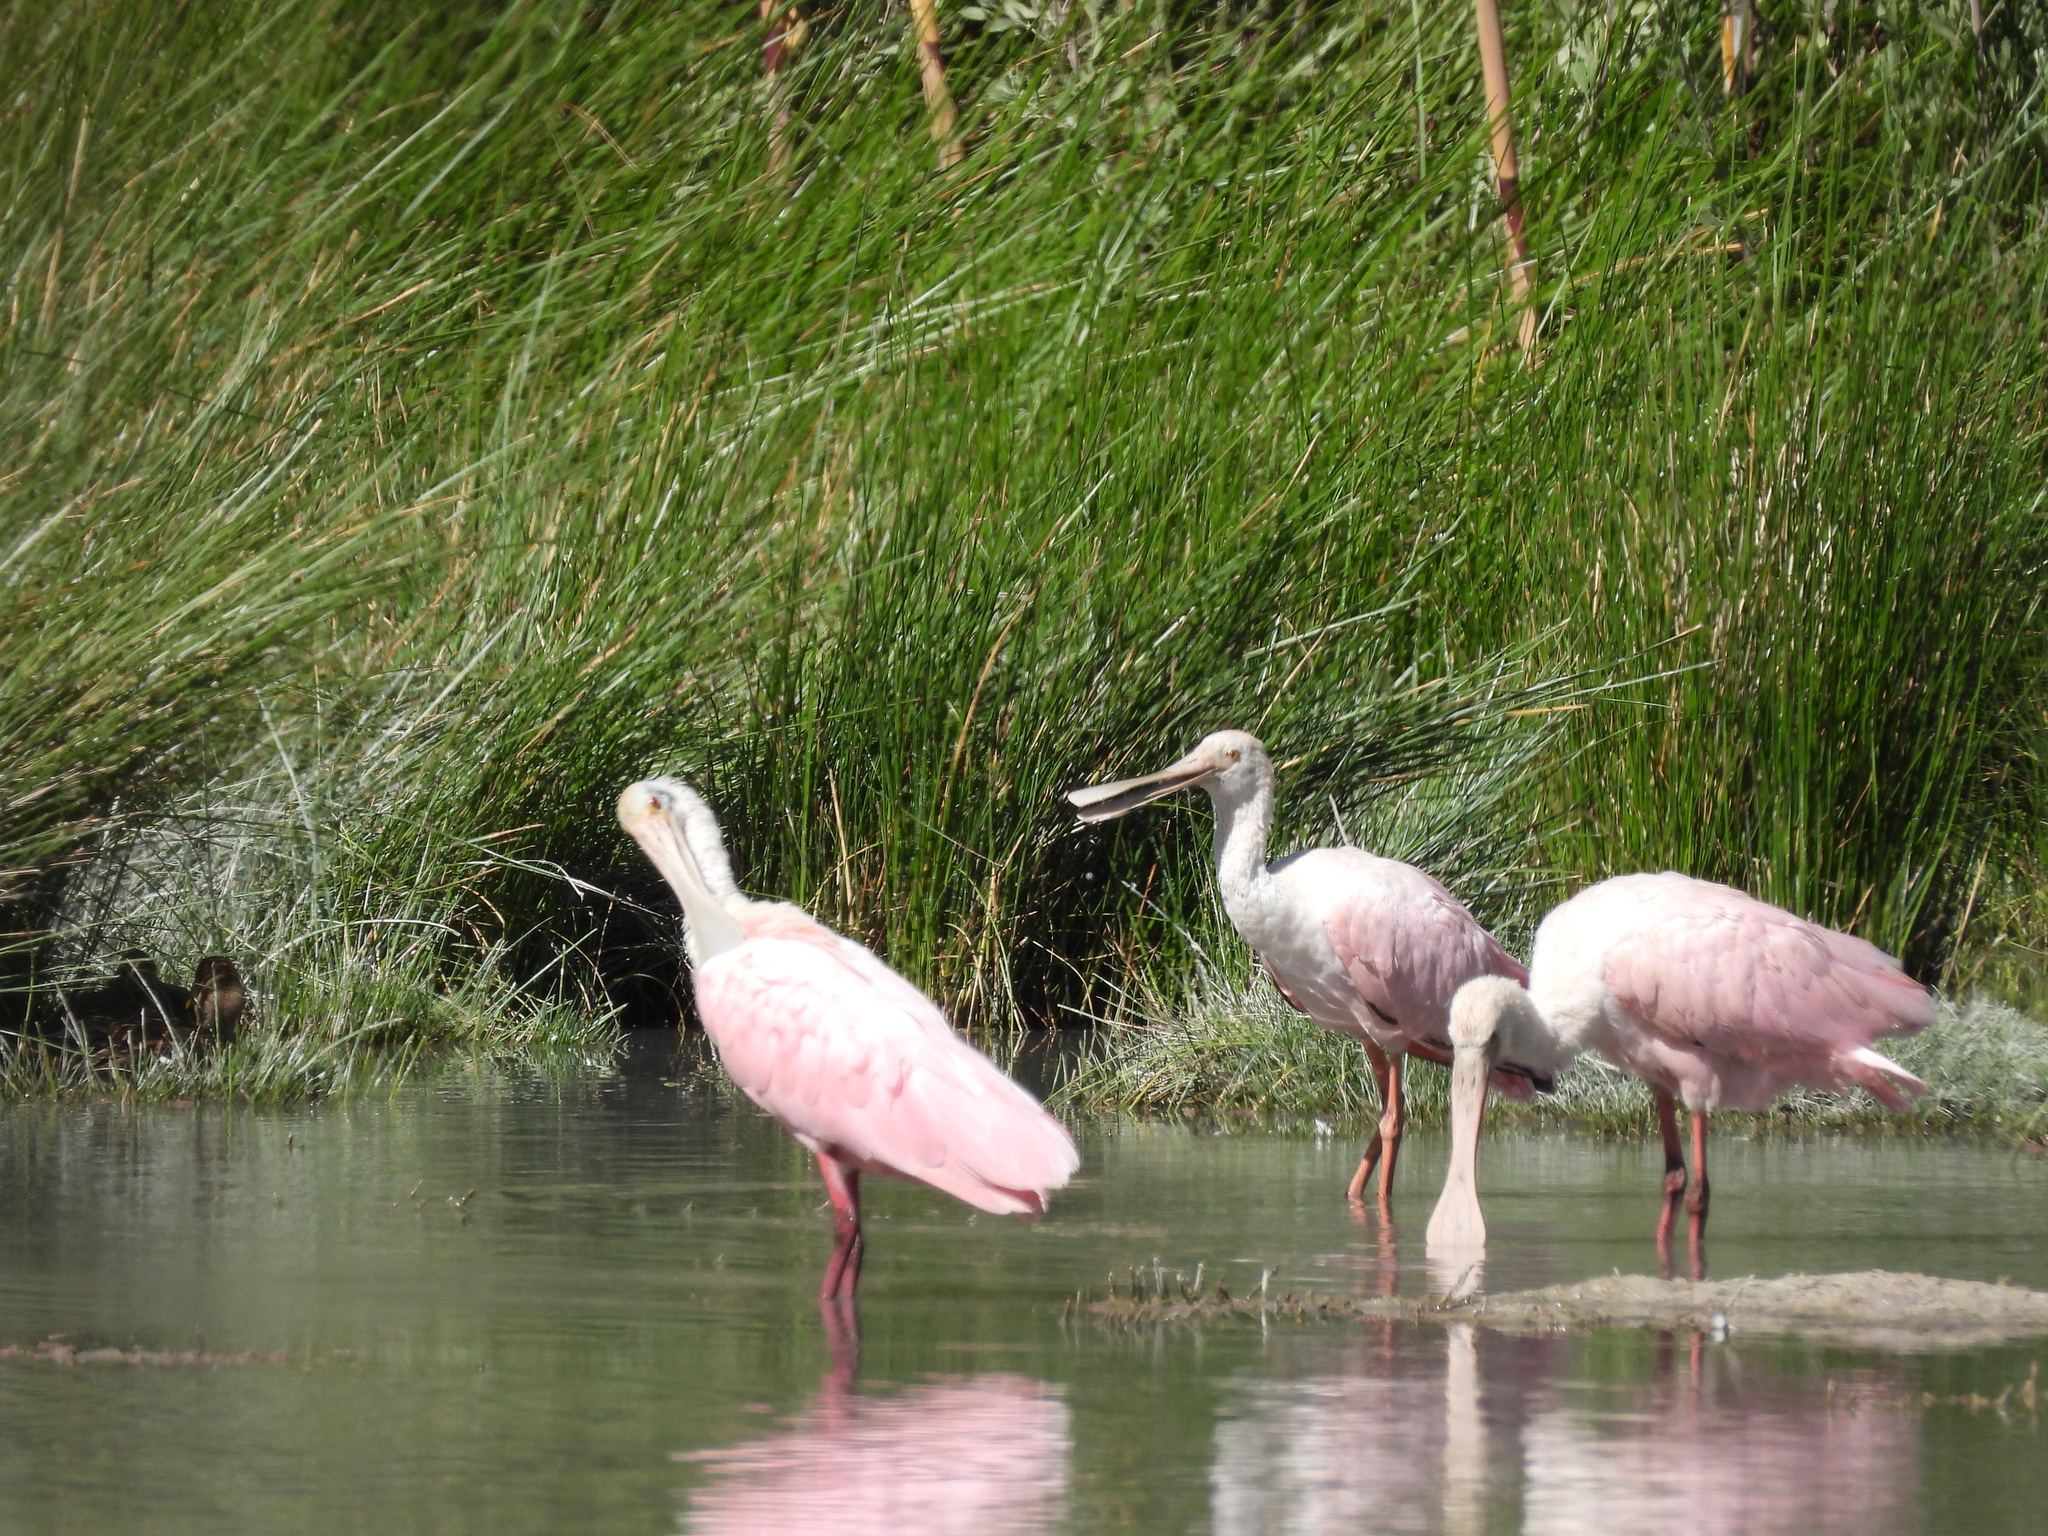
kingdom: Animalia
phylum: Chordata
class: Aves
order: Pelecaniformes
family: Threskiornithidae
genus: Platalea
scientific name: Platalea ajaja
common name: Roseate spoonbill
